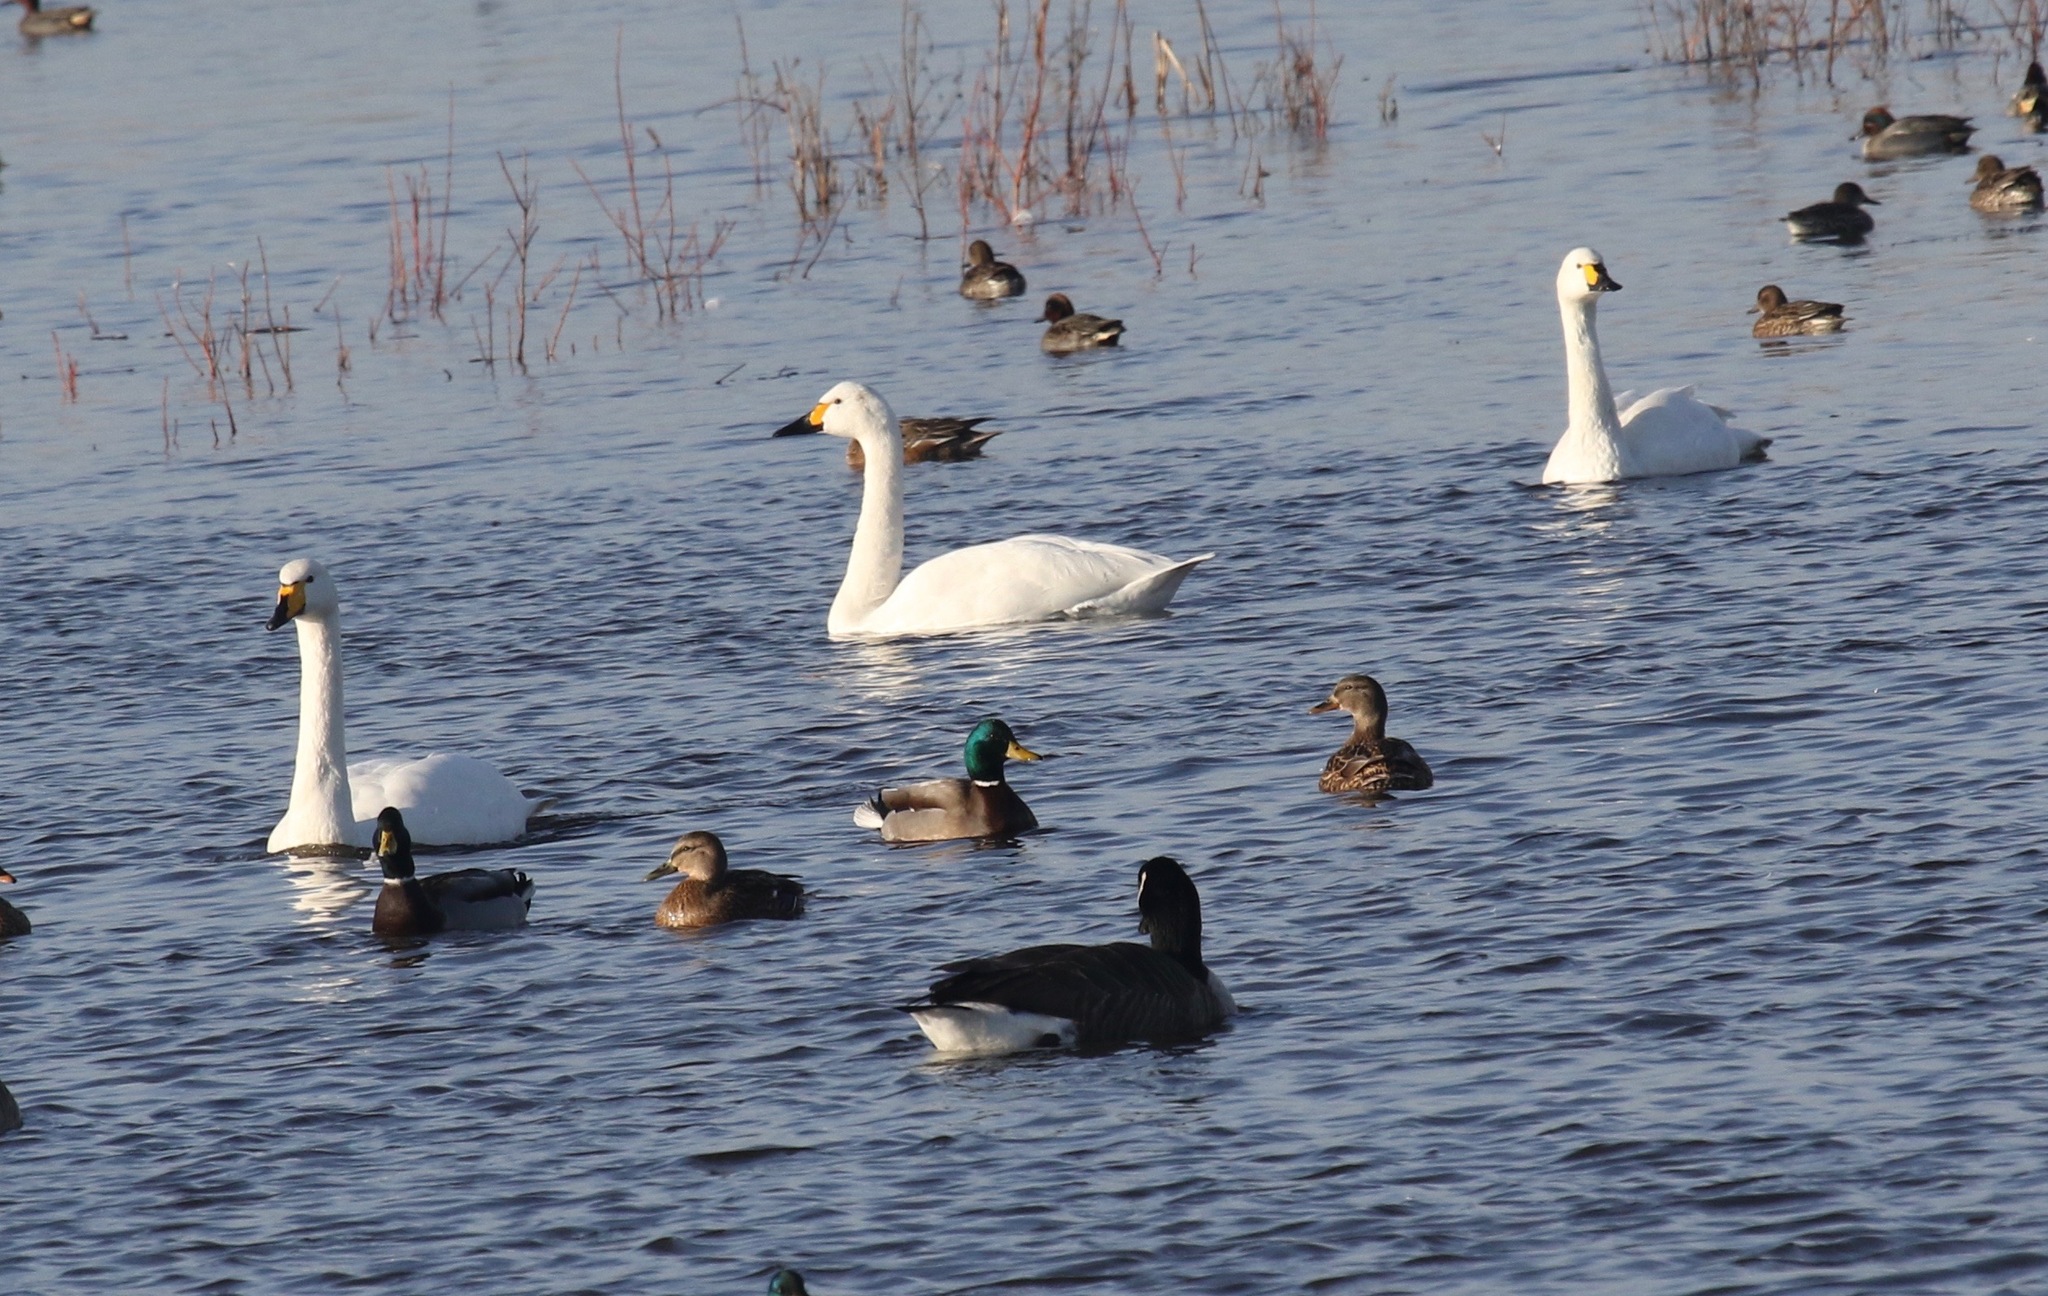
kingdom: Animalia
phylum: Chordata
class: Aves
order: Anseriformes
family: Anatidae
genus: Cygnus
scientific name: Cygnus columbianus
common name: Tundra swan
